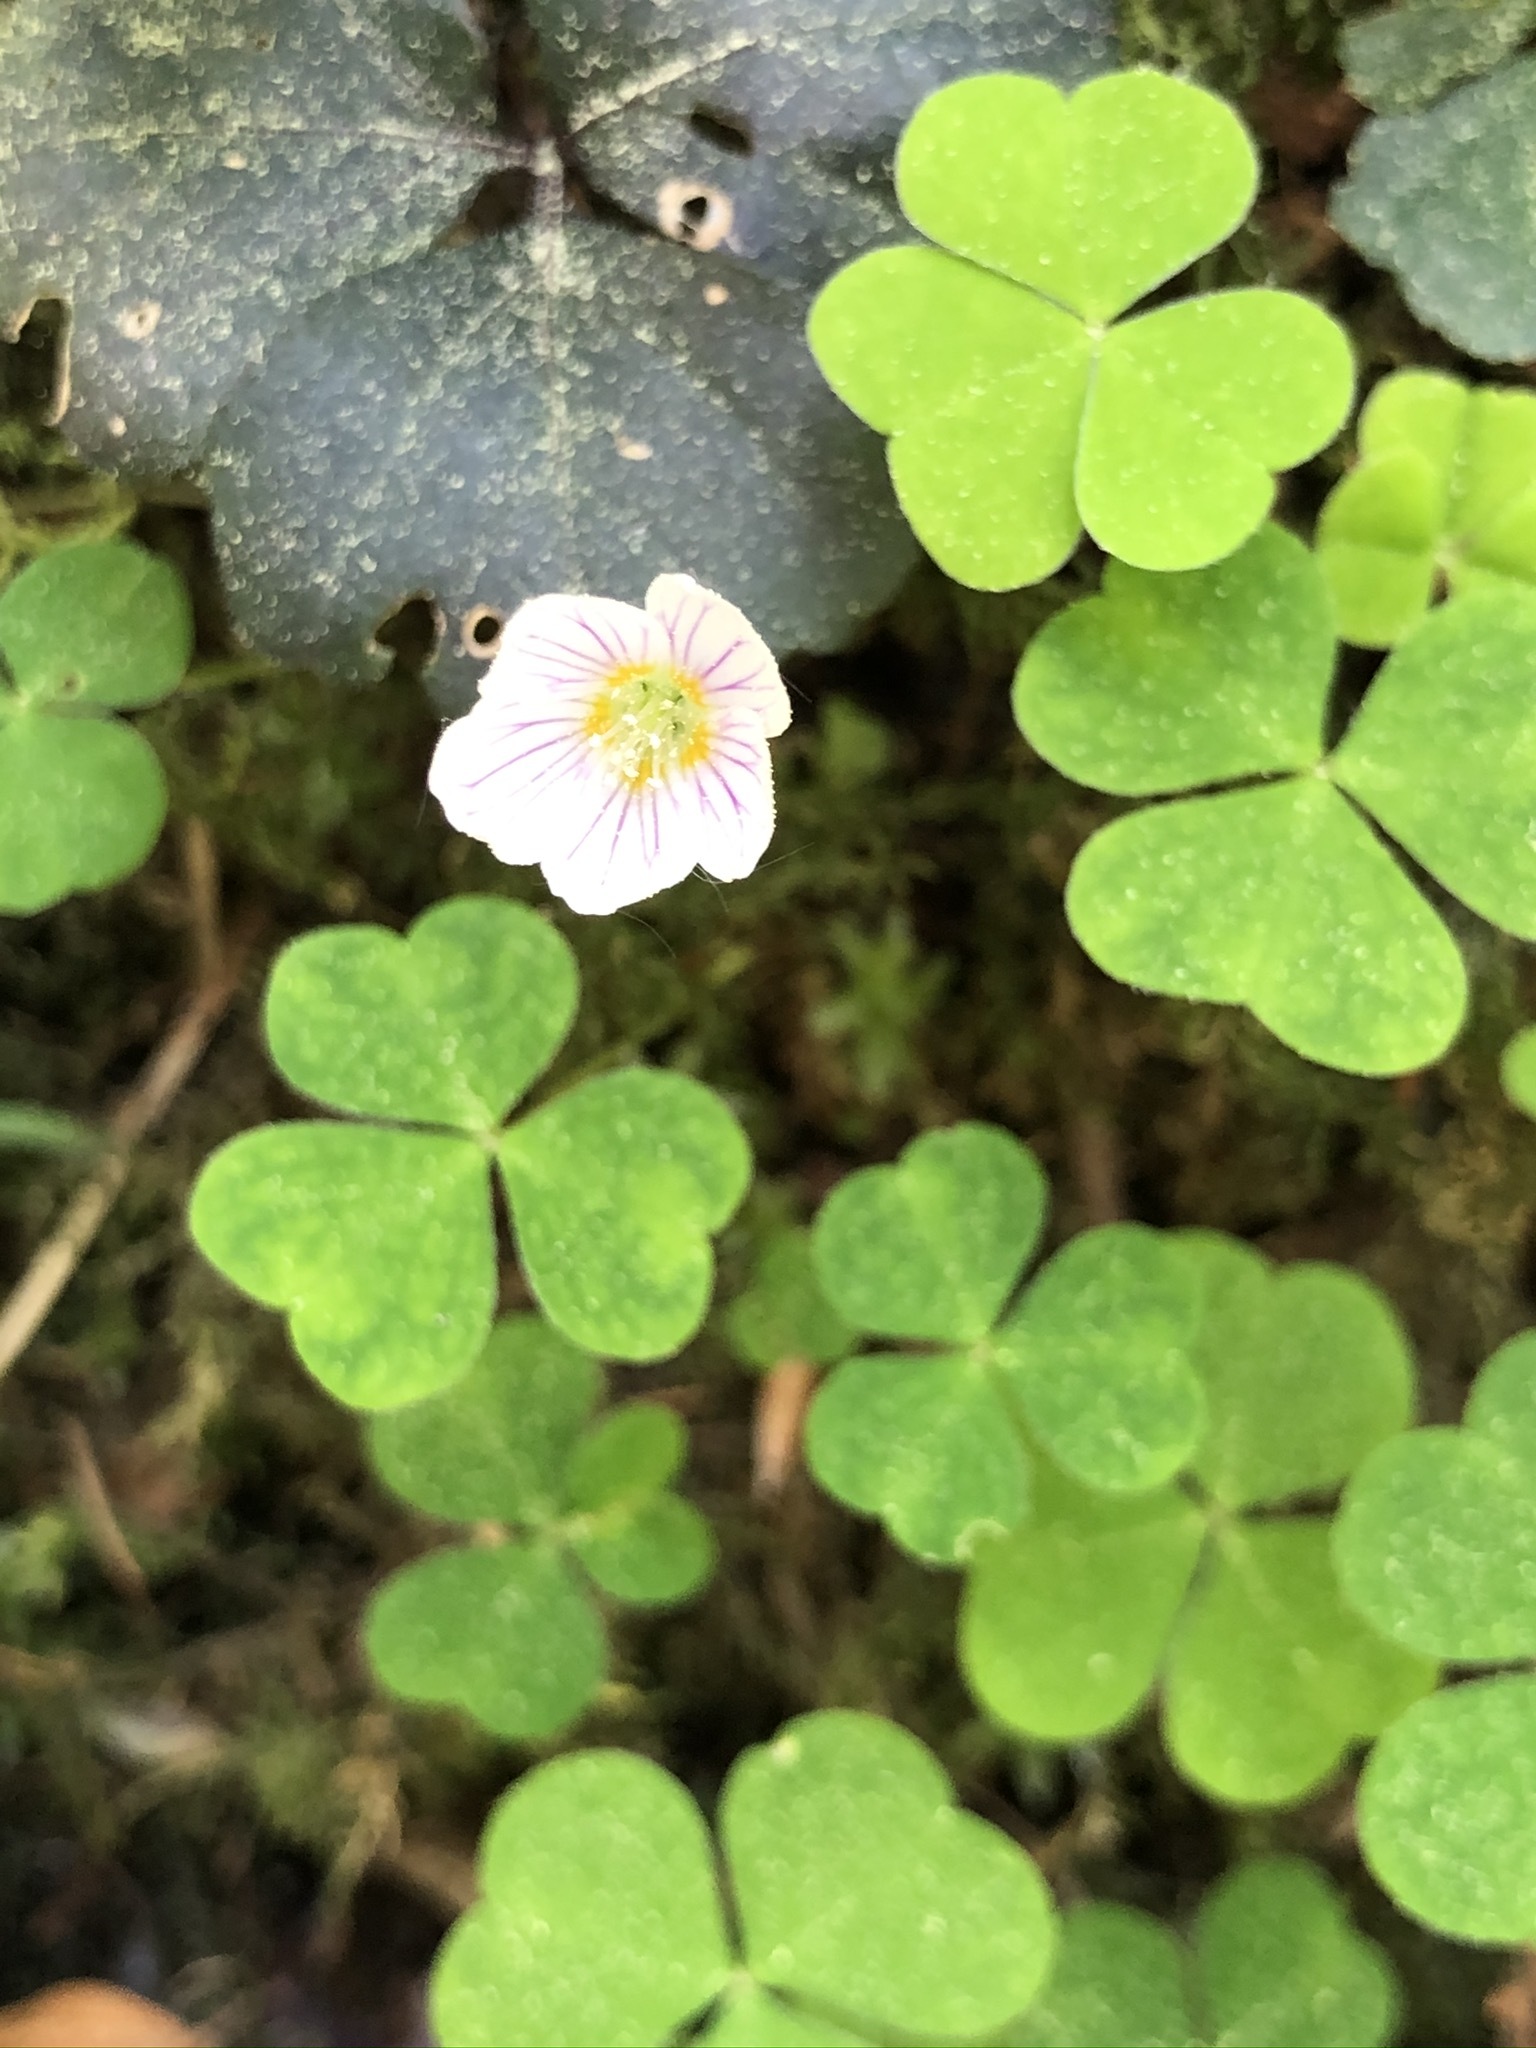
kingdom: Plantae
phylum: Tracheophyta
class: Magnoliopsida
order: Oxalidales
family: Oxalidaceae
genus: Oxalis
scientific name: Oxalis acetosella
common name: Wood-sorrel
